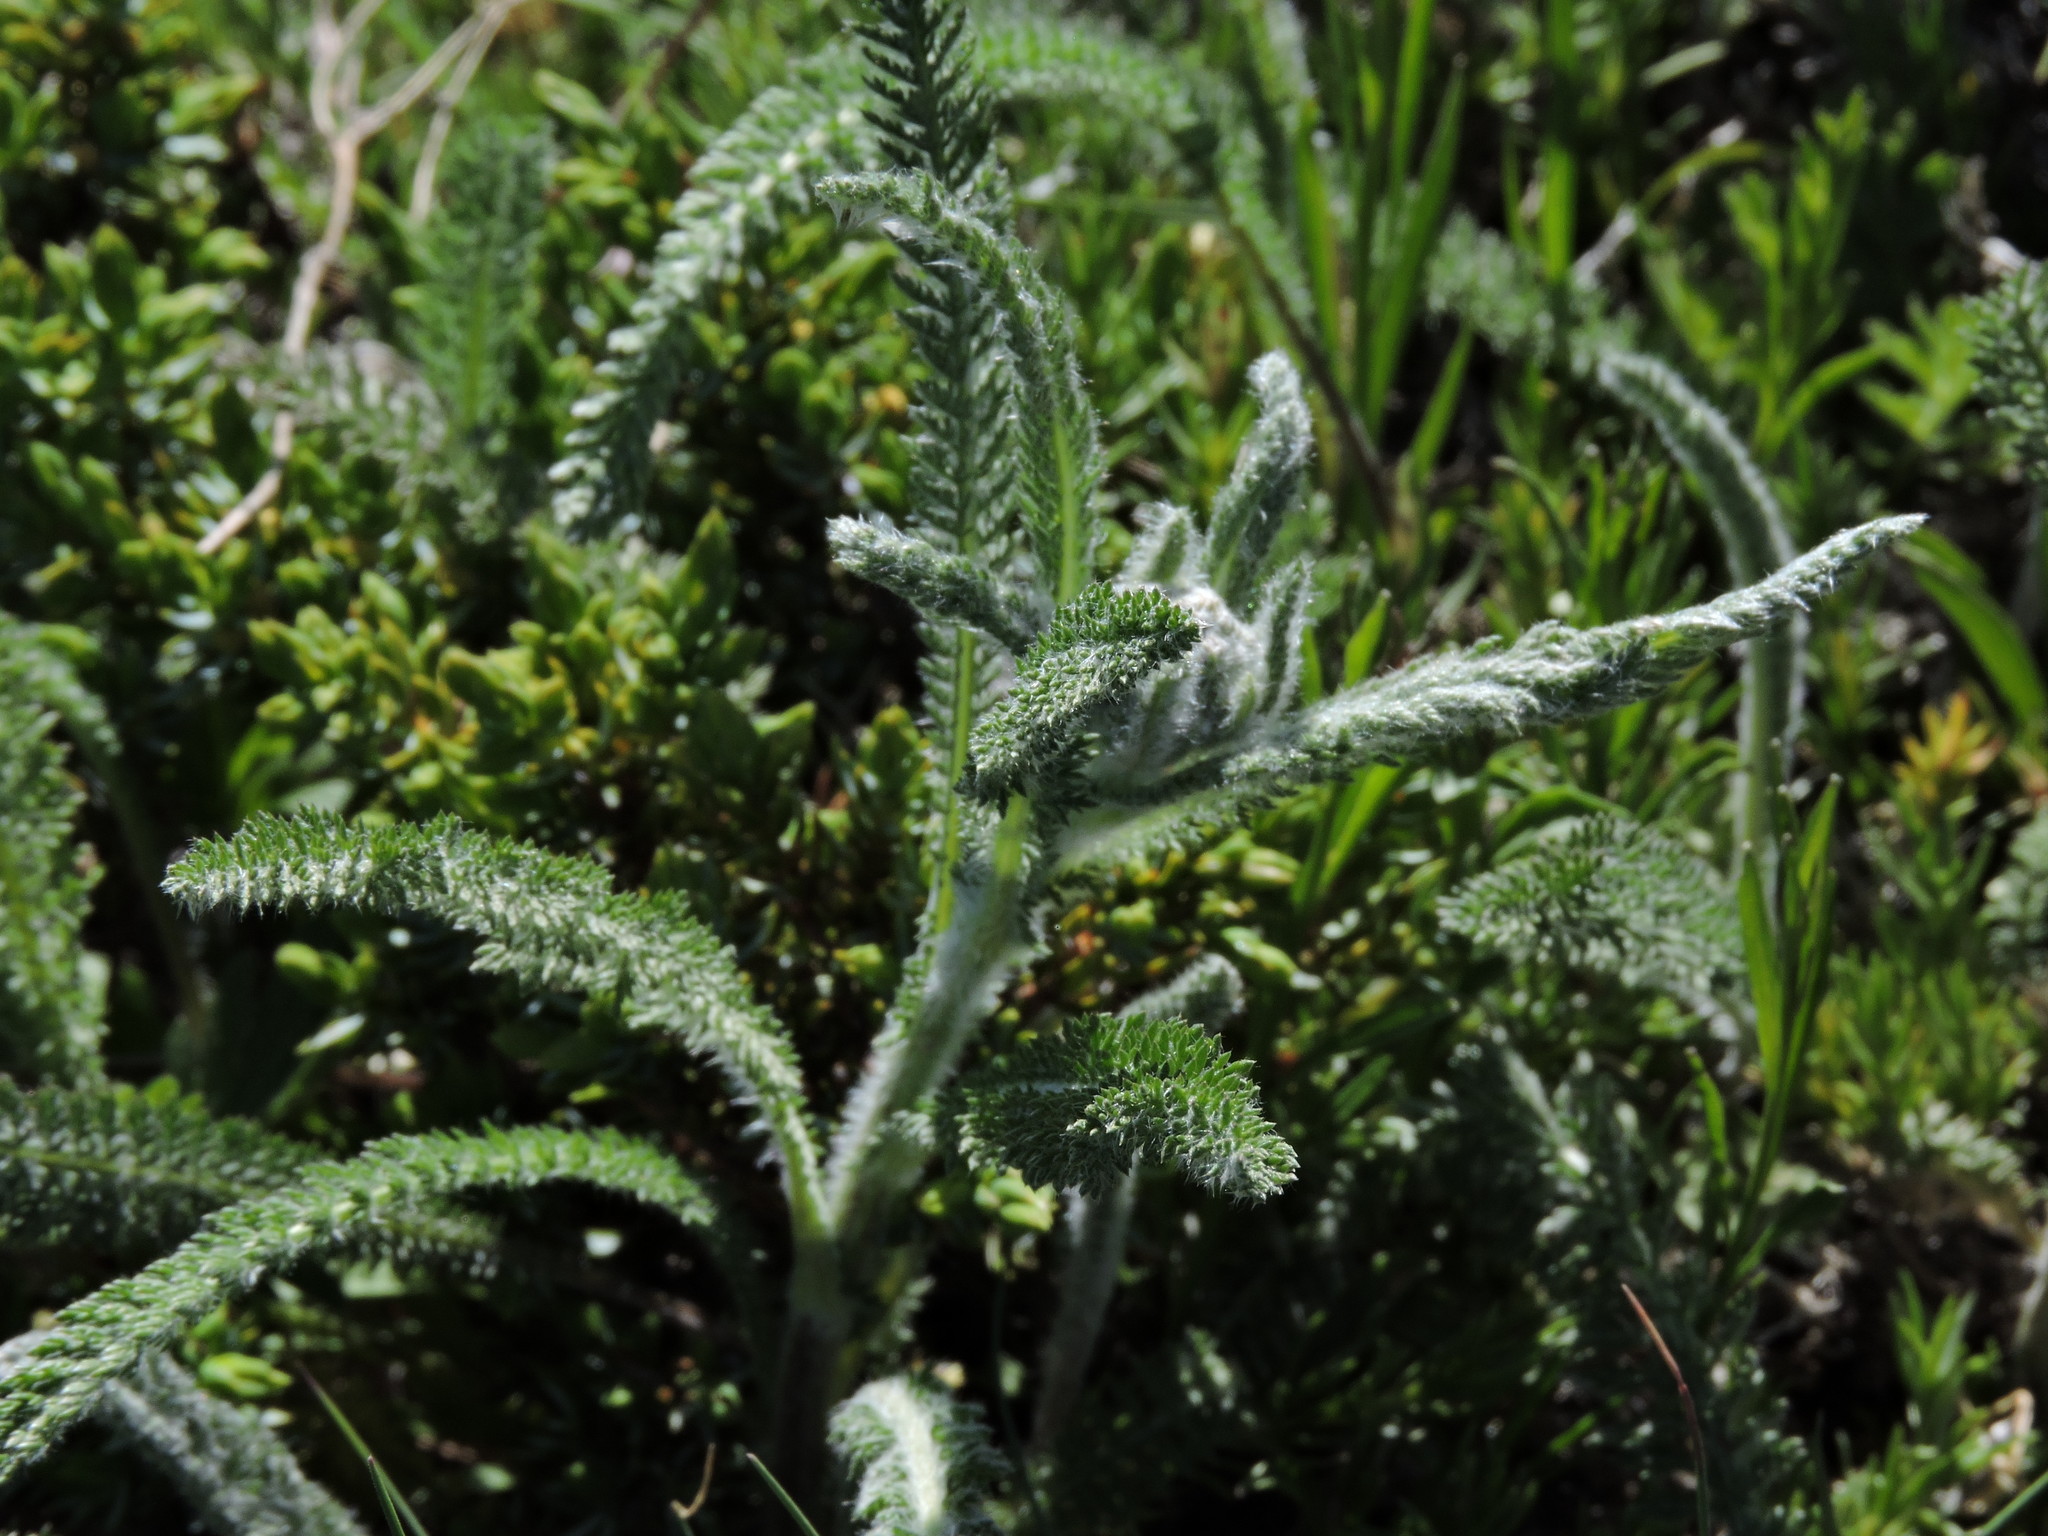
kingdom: Plantae
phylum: Tracheophyta
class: Magnoliopsida
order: Asterales
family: Asteraceae
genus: Achillea
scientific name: Achillea millefolium
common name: Yarrow
